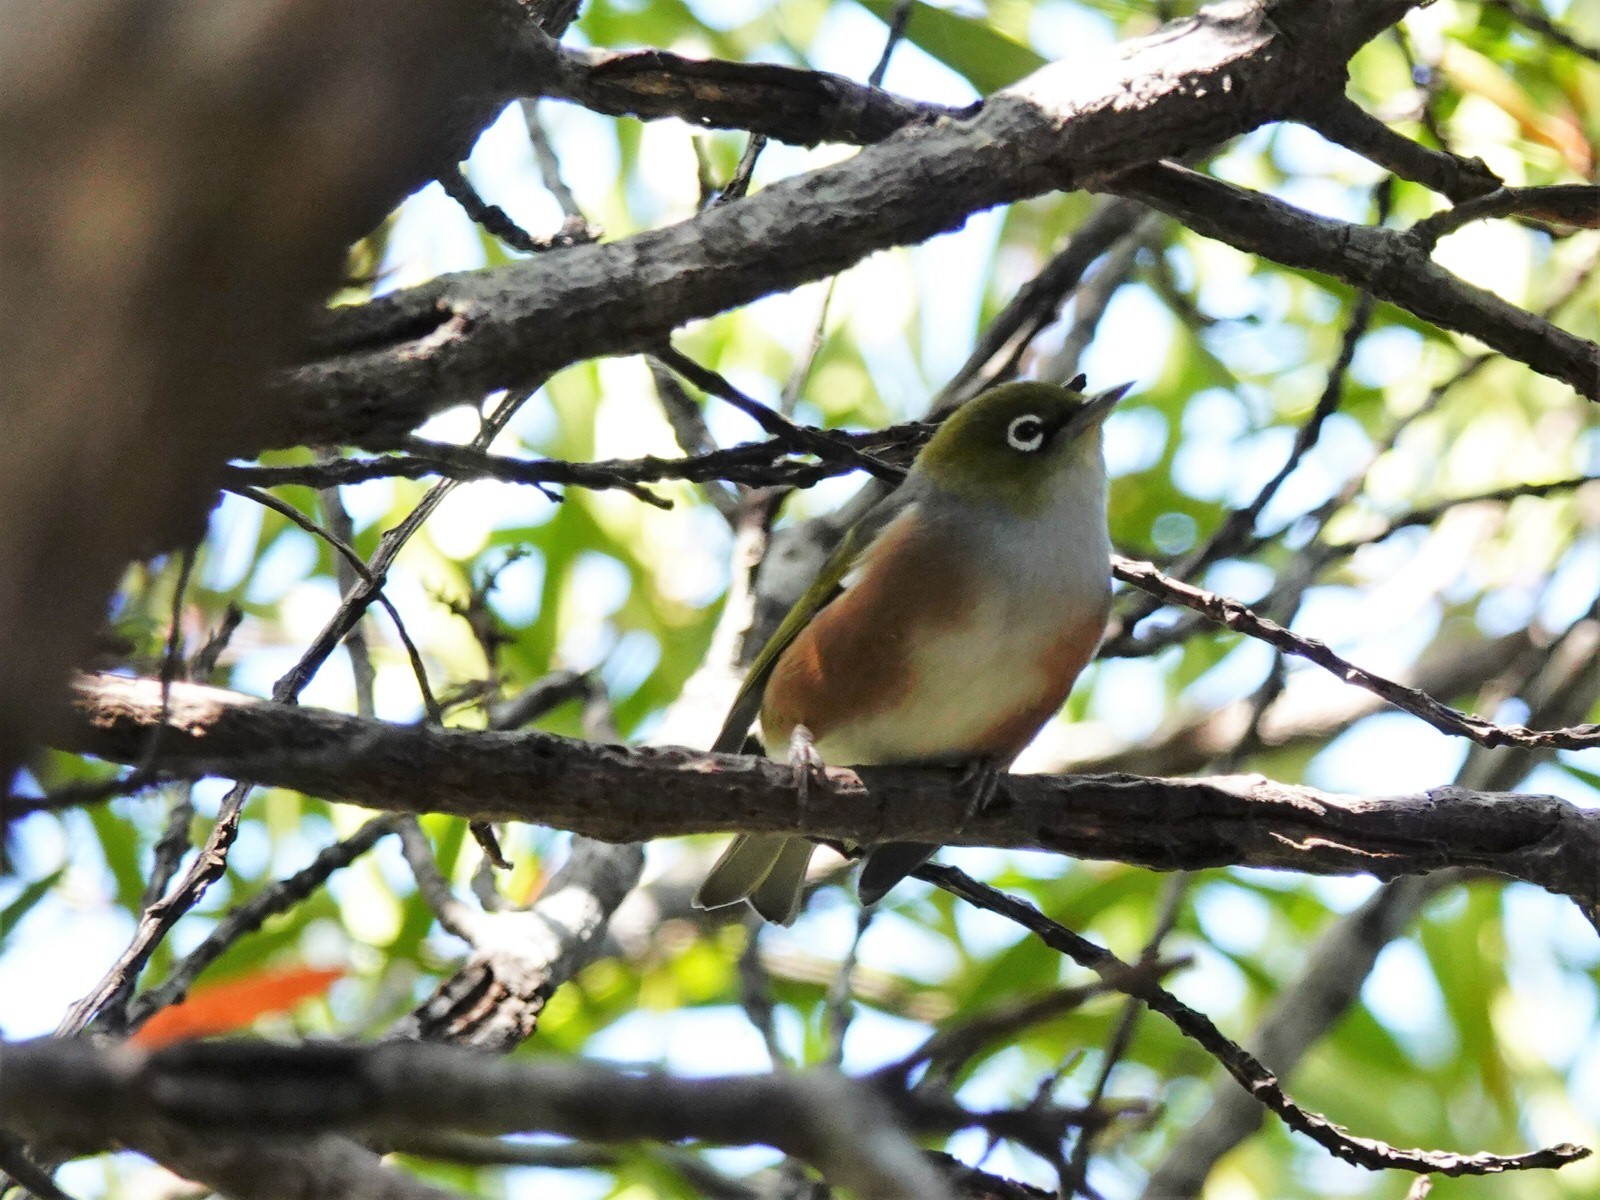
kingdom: Animalia
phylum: Chordata
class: Aves
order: Passeriformes
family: Zosteropidae
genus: Zosterops
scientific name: Zosterops lateralis
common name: Silvereye
